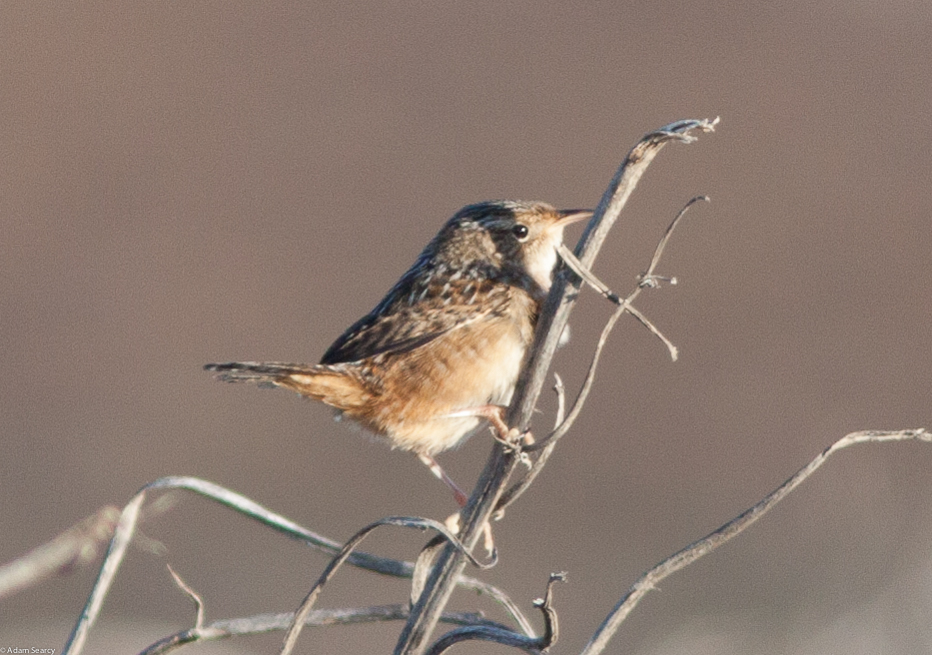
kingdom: Animalia
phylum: Chordata
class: Aves
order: Passeriformes
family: Troglodytidae
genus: Cistothorus
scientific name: Cistothorus platensis
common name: Sedge wren
